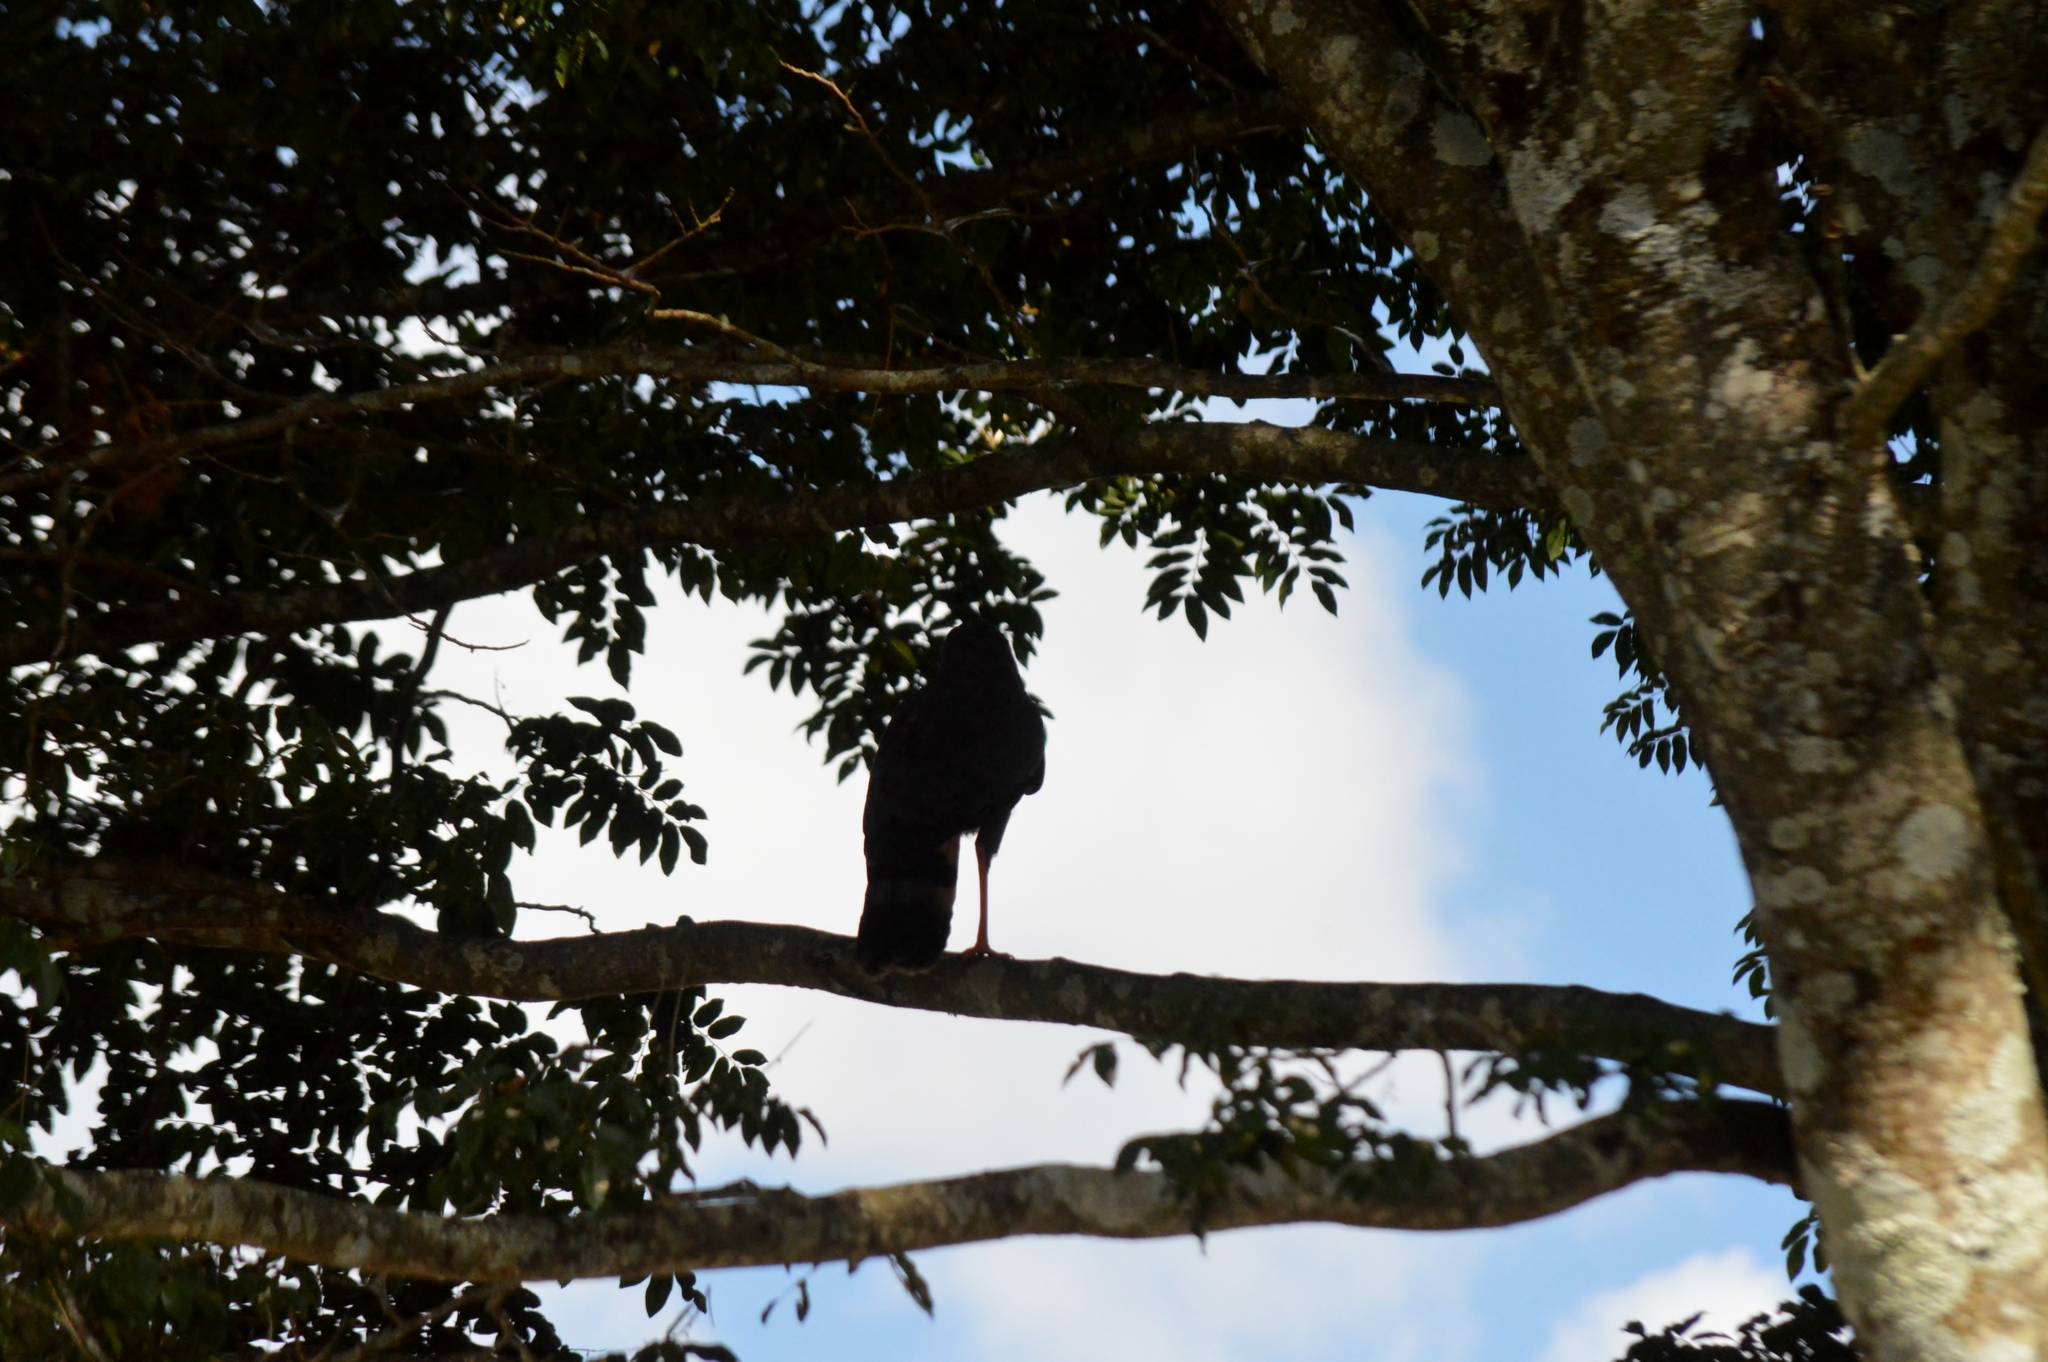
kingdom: Animalia
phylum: Chordata
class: Aves
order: Accipitriformes
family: Accipitridae
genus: Geranospiza
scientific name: Geranospiza caerulescens
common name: Crane hawk
